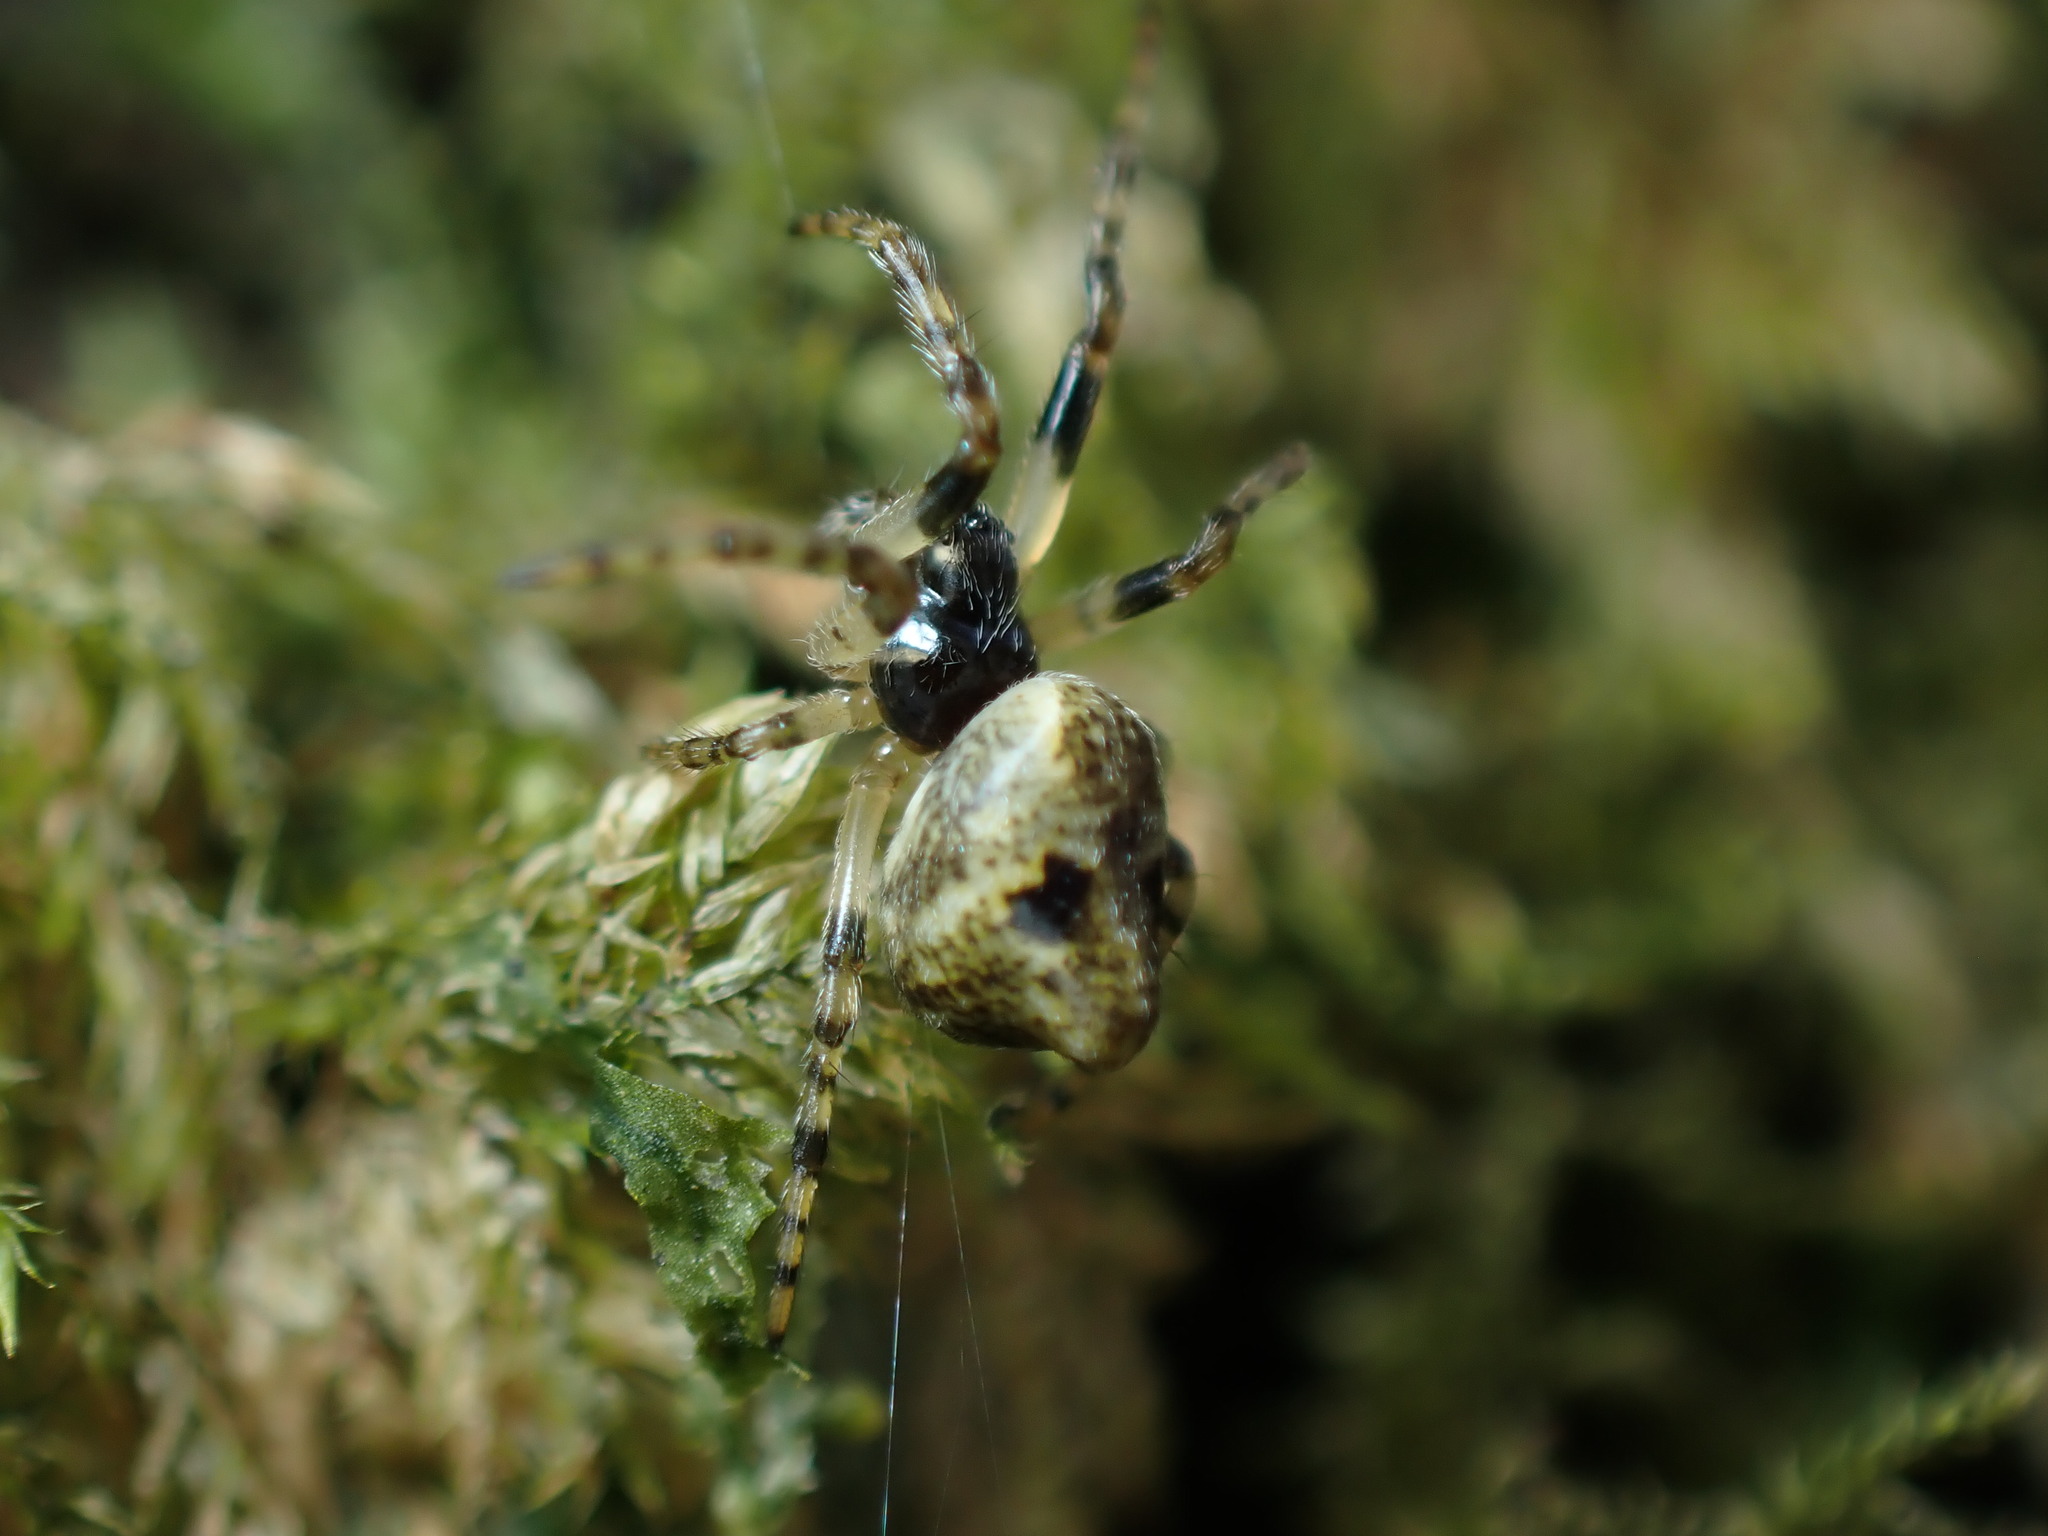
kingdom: Animalia
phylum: Arthropoda
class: Arachnida
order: Araneae
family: Araneidae
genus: Cyclosa
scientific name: Cyclosa conica
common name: Conical trashline orbweaver
